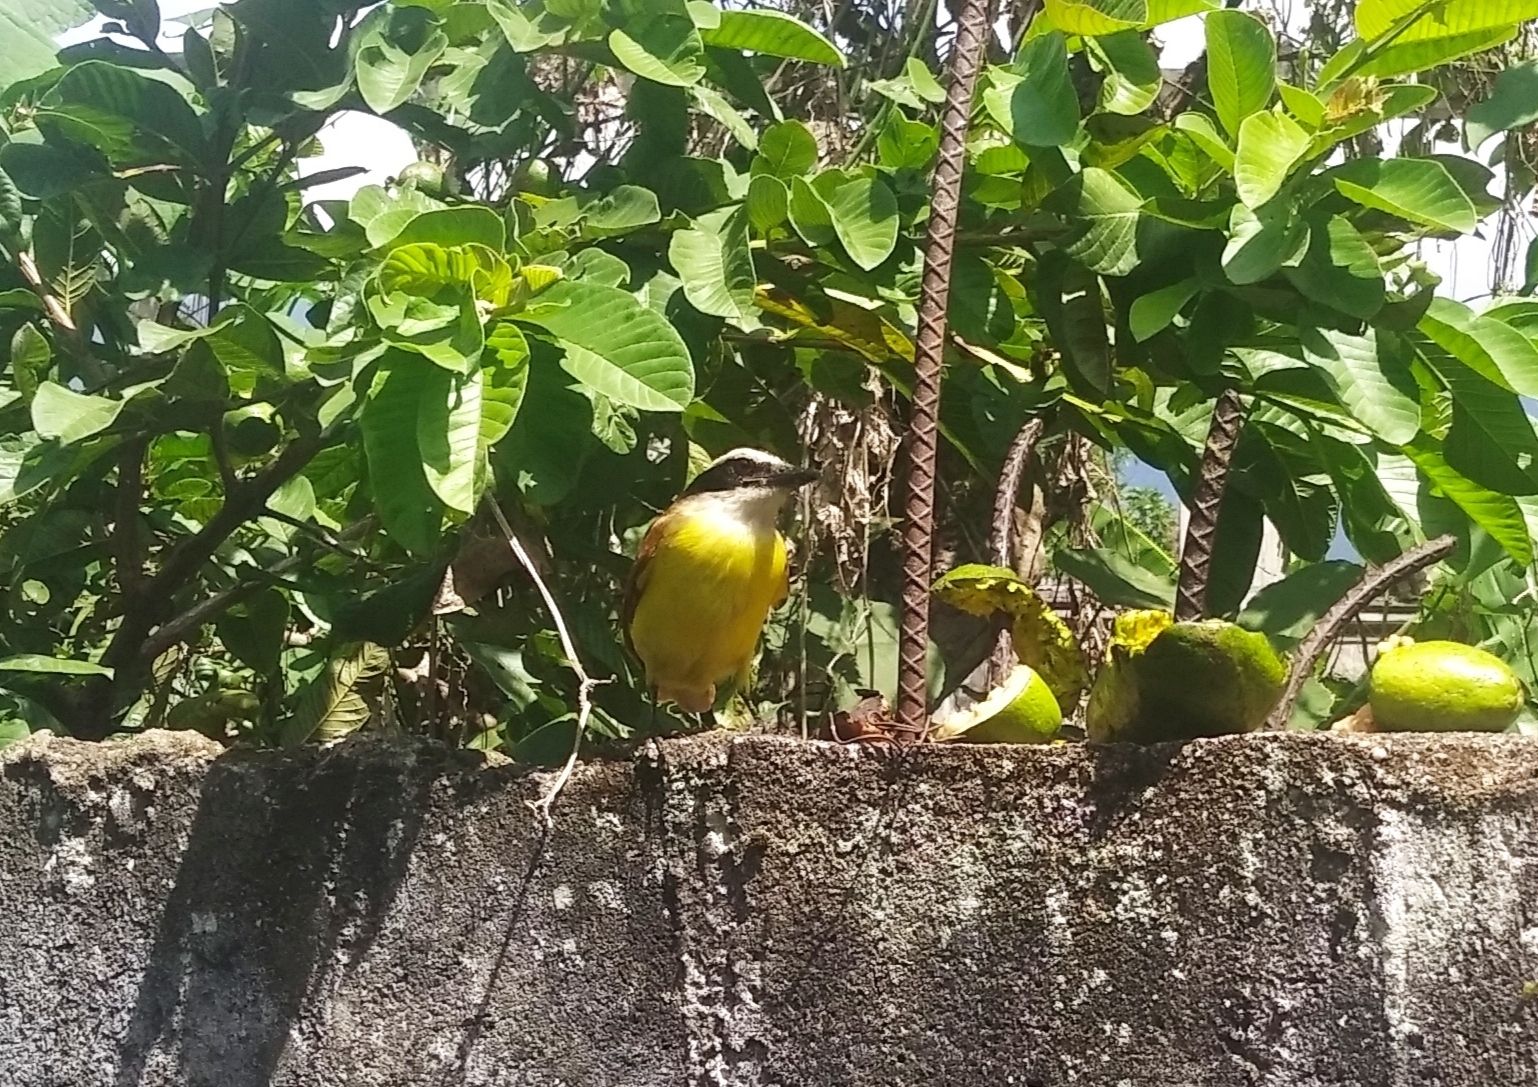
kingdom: Animalia
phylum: Chordata
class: Aves
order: Passeriformes
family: Tyrannidae
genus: Pitangus
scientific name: Pitangus sulphuratus
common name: Great kiskadee
